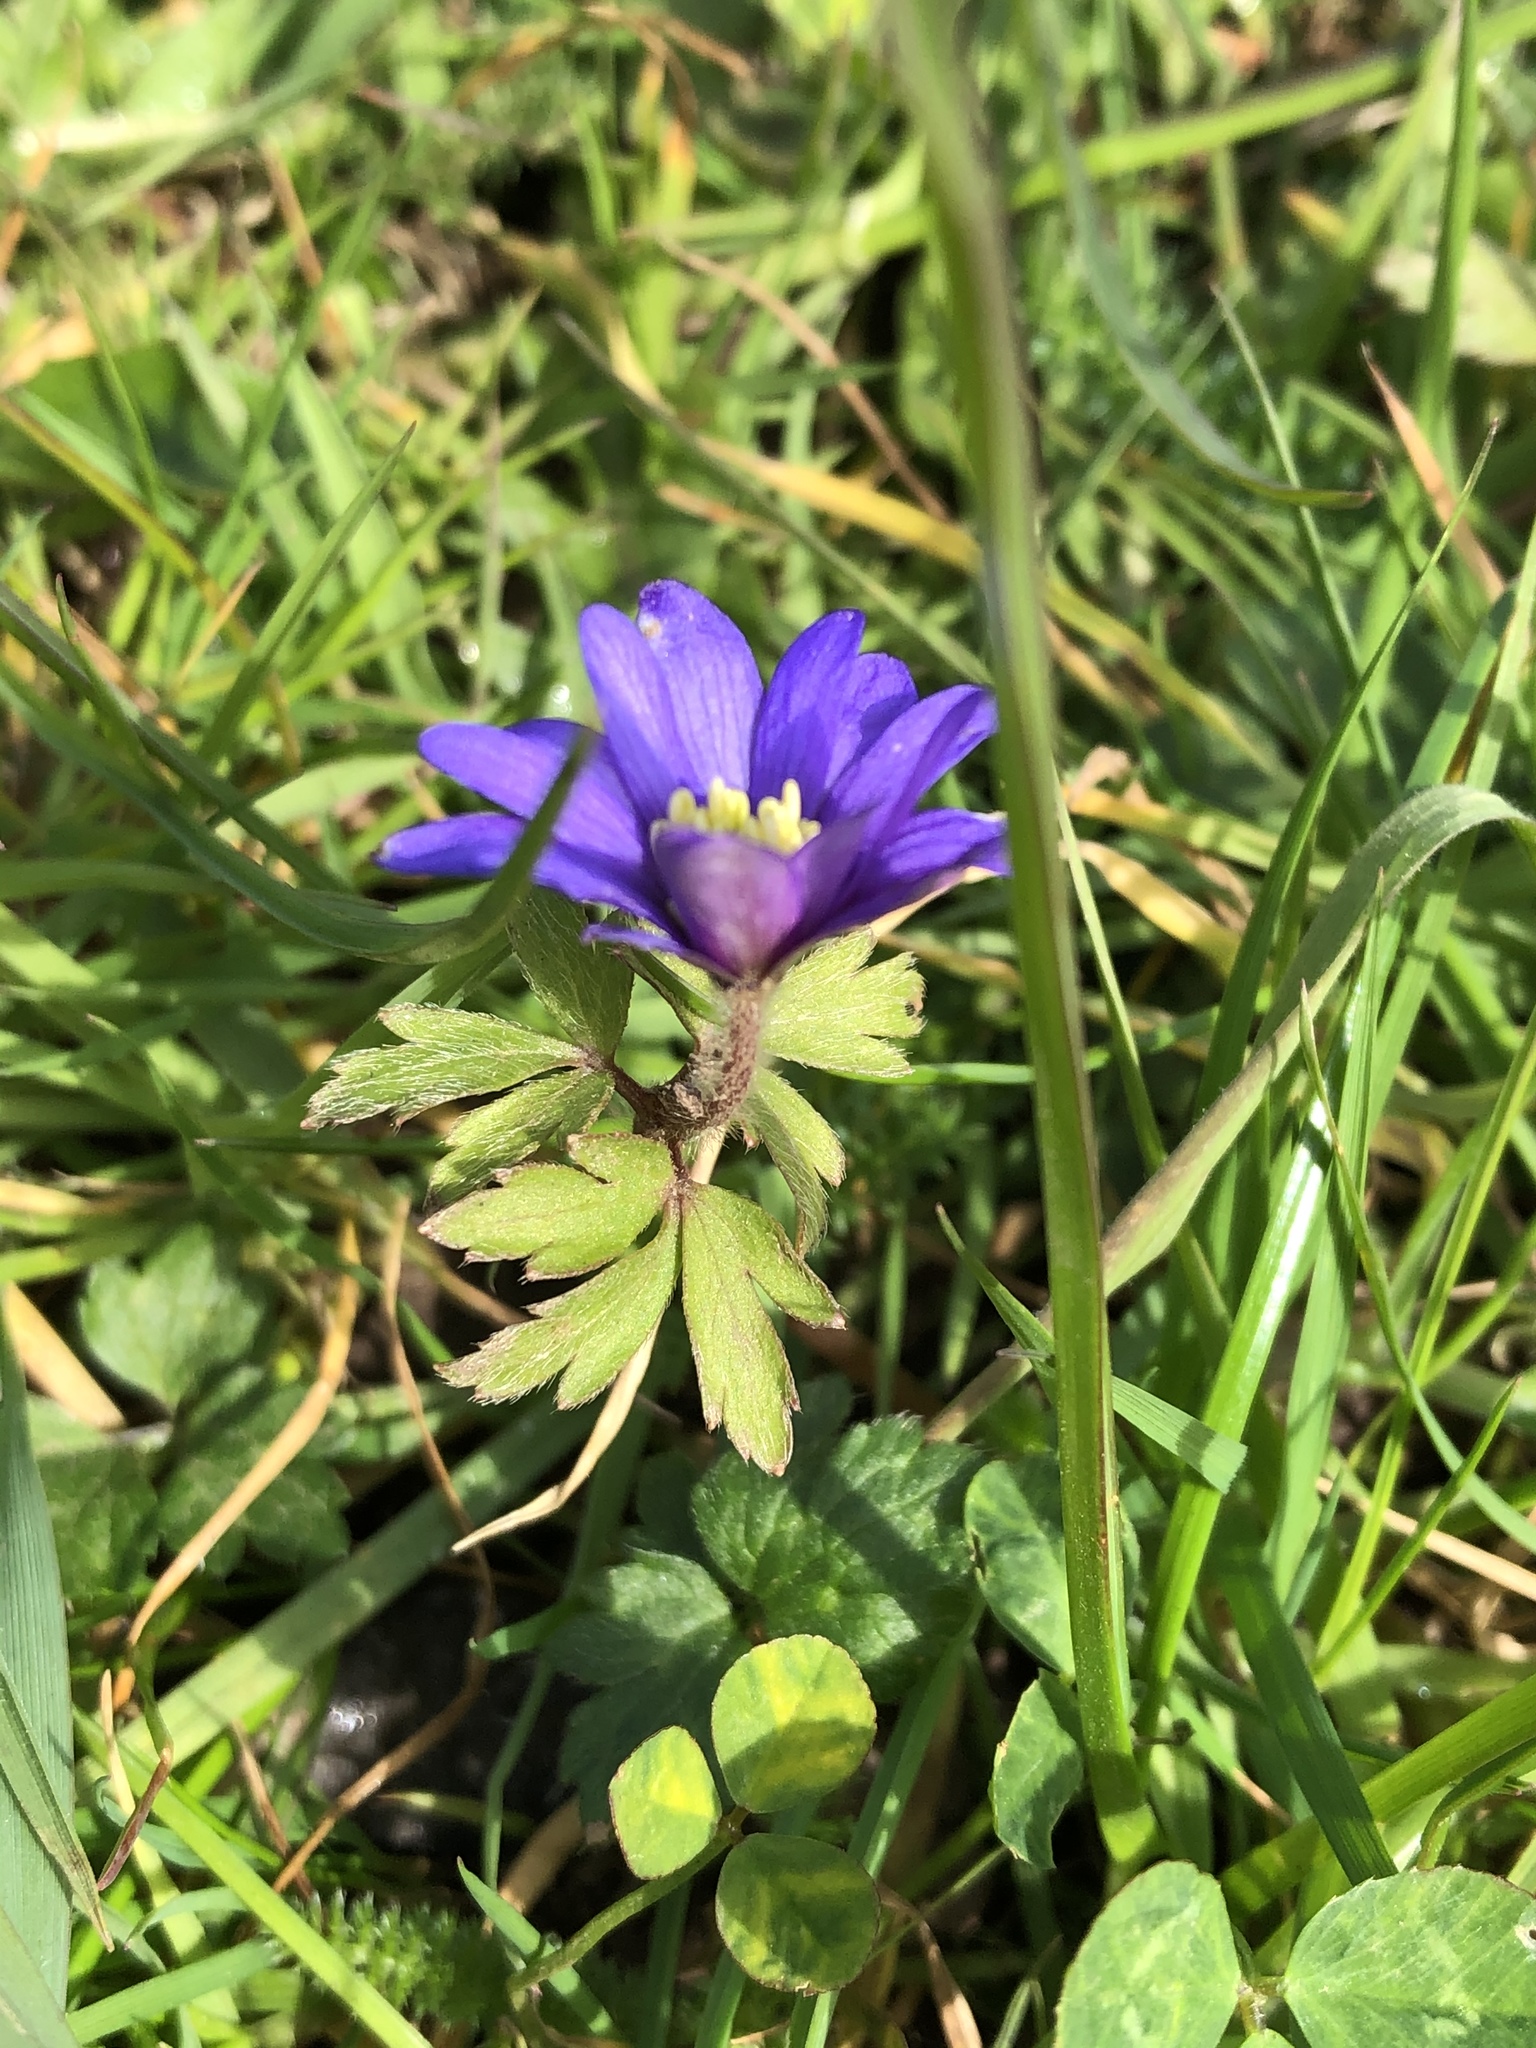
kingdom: Plantae
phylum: Tracheophyta
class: Magnoliopsida
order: Ranunculales
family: Ranunculaceae
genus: Anemone
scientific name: Anemone blanda
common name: Balkan anemone
